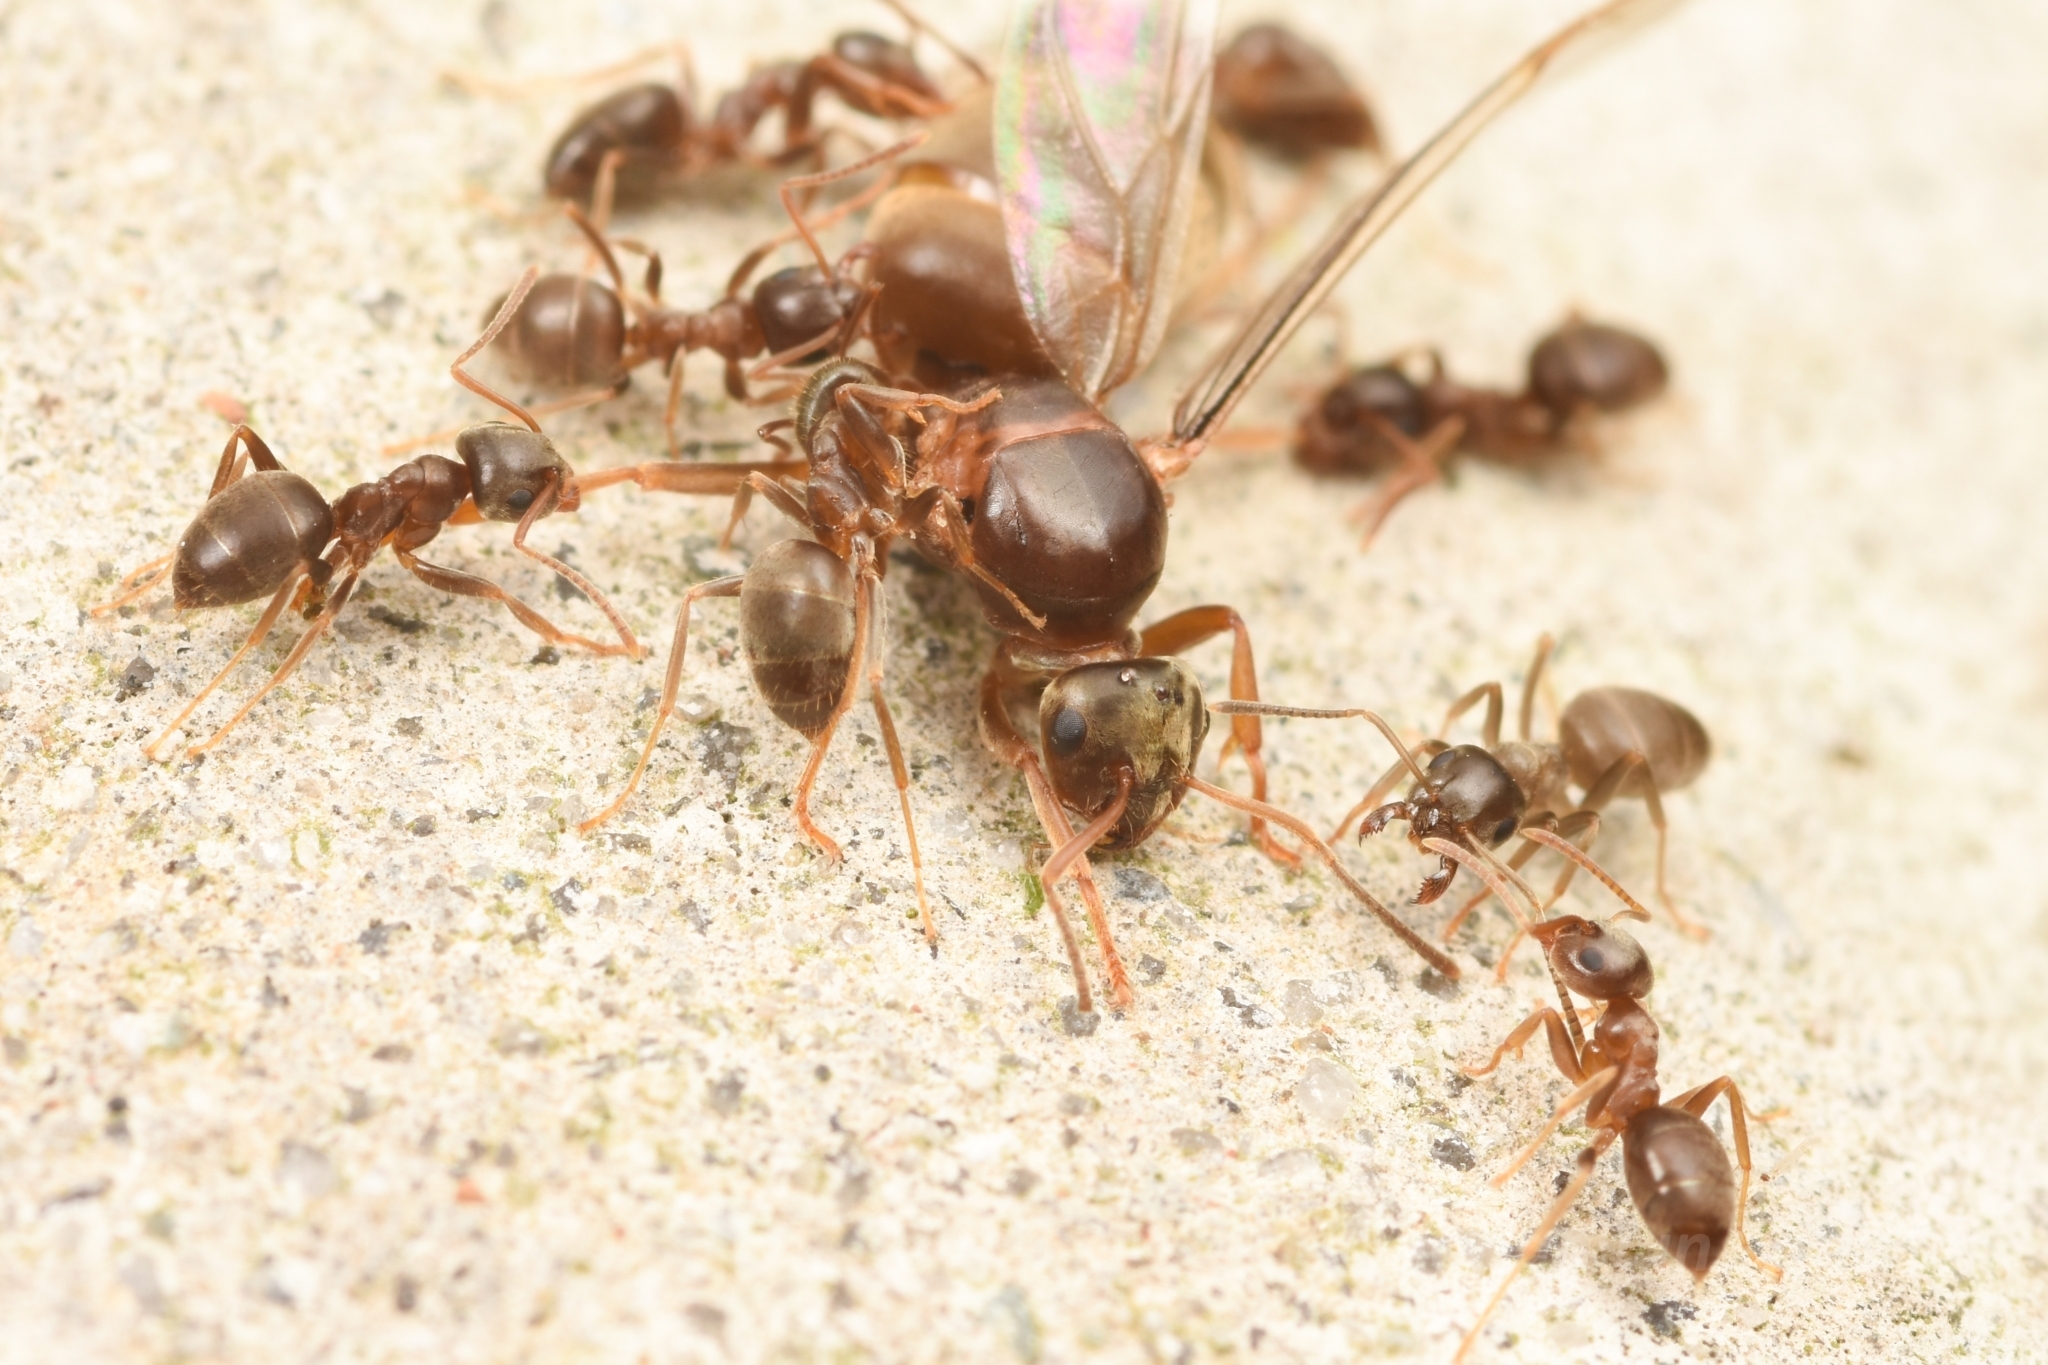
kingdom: Animalia
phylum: Arthropoda
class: Insecta
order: Hymenoptera
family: Formicidae
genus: Lasius
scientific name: Lasius
